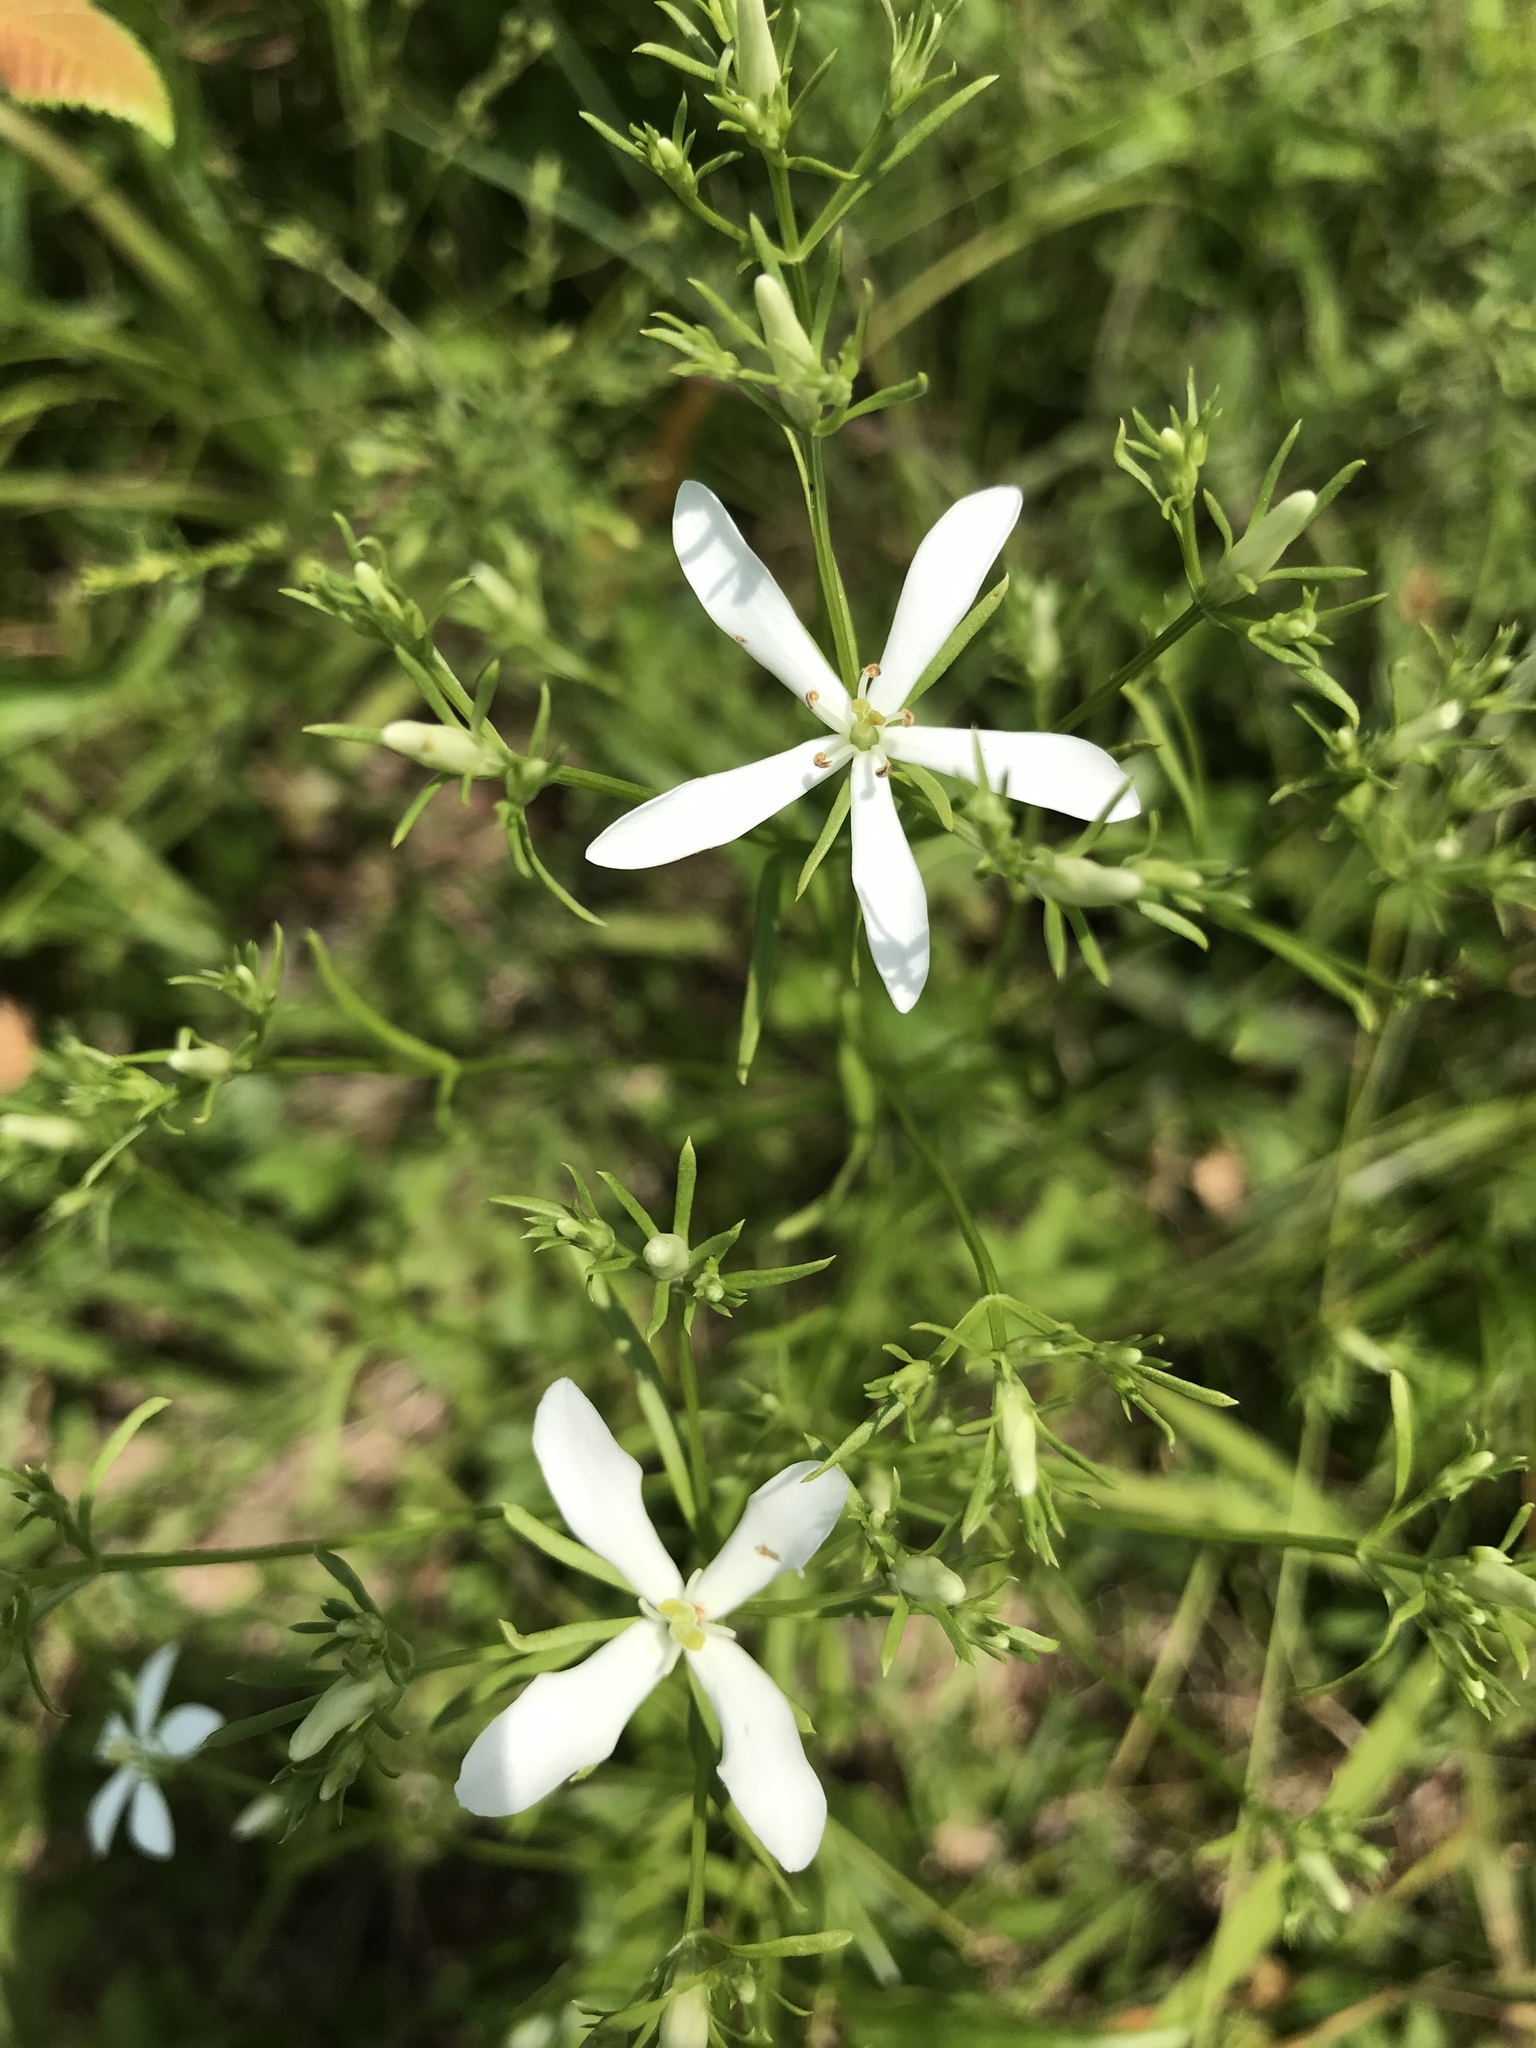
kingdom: Plantae
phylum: Tracheophyta
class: Magnoliopsida
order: Gentianales
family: Gentianaceae
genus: Sabatia
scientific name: Sabatia quadrangula
